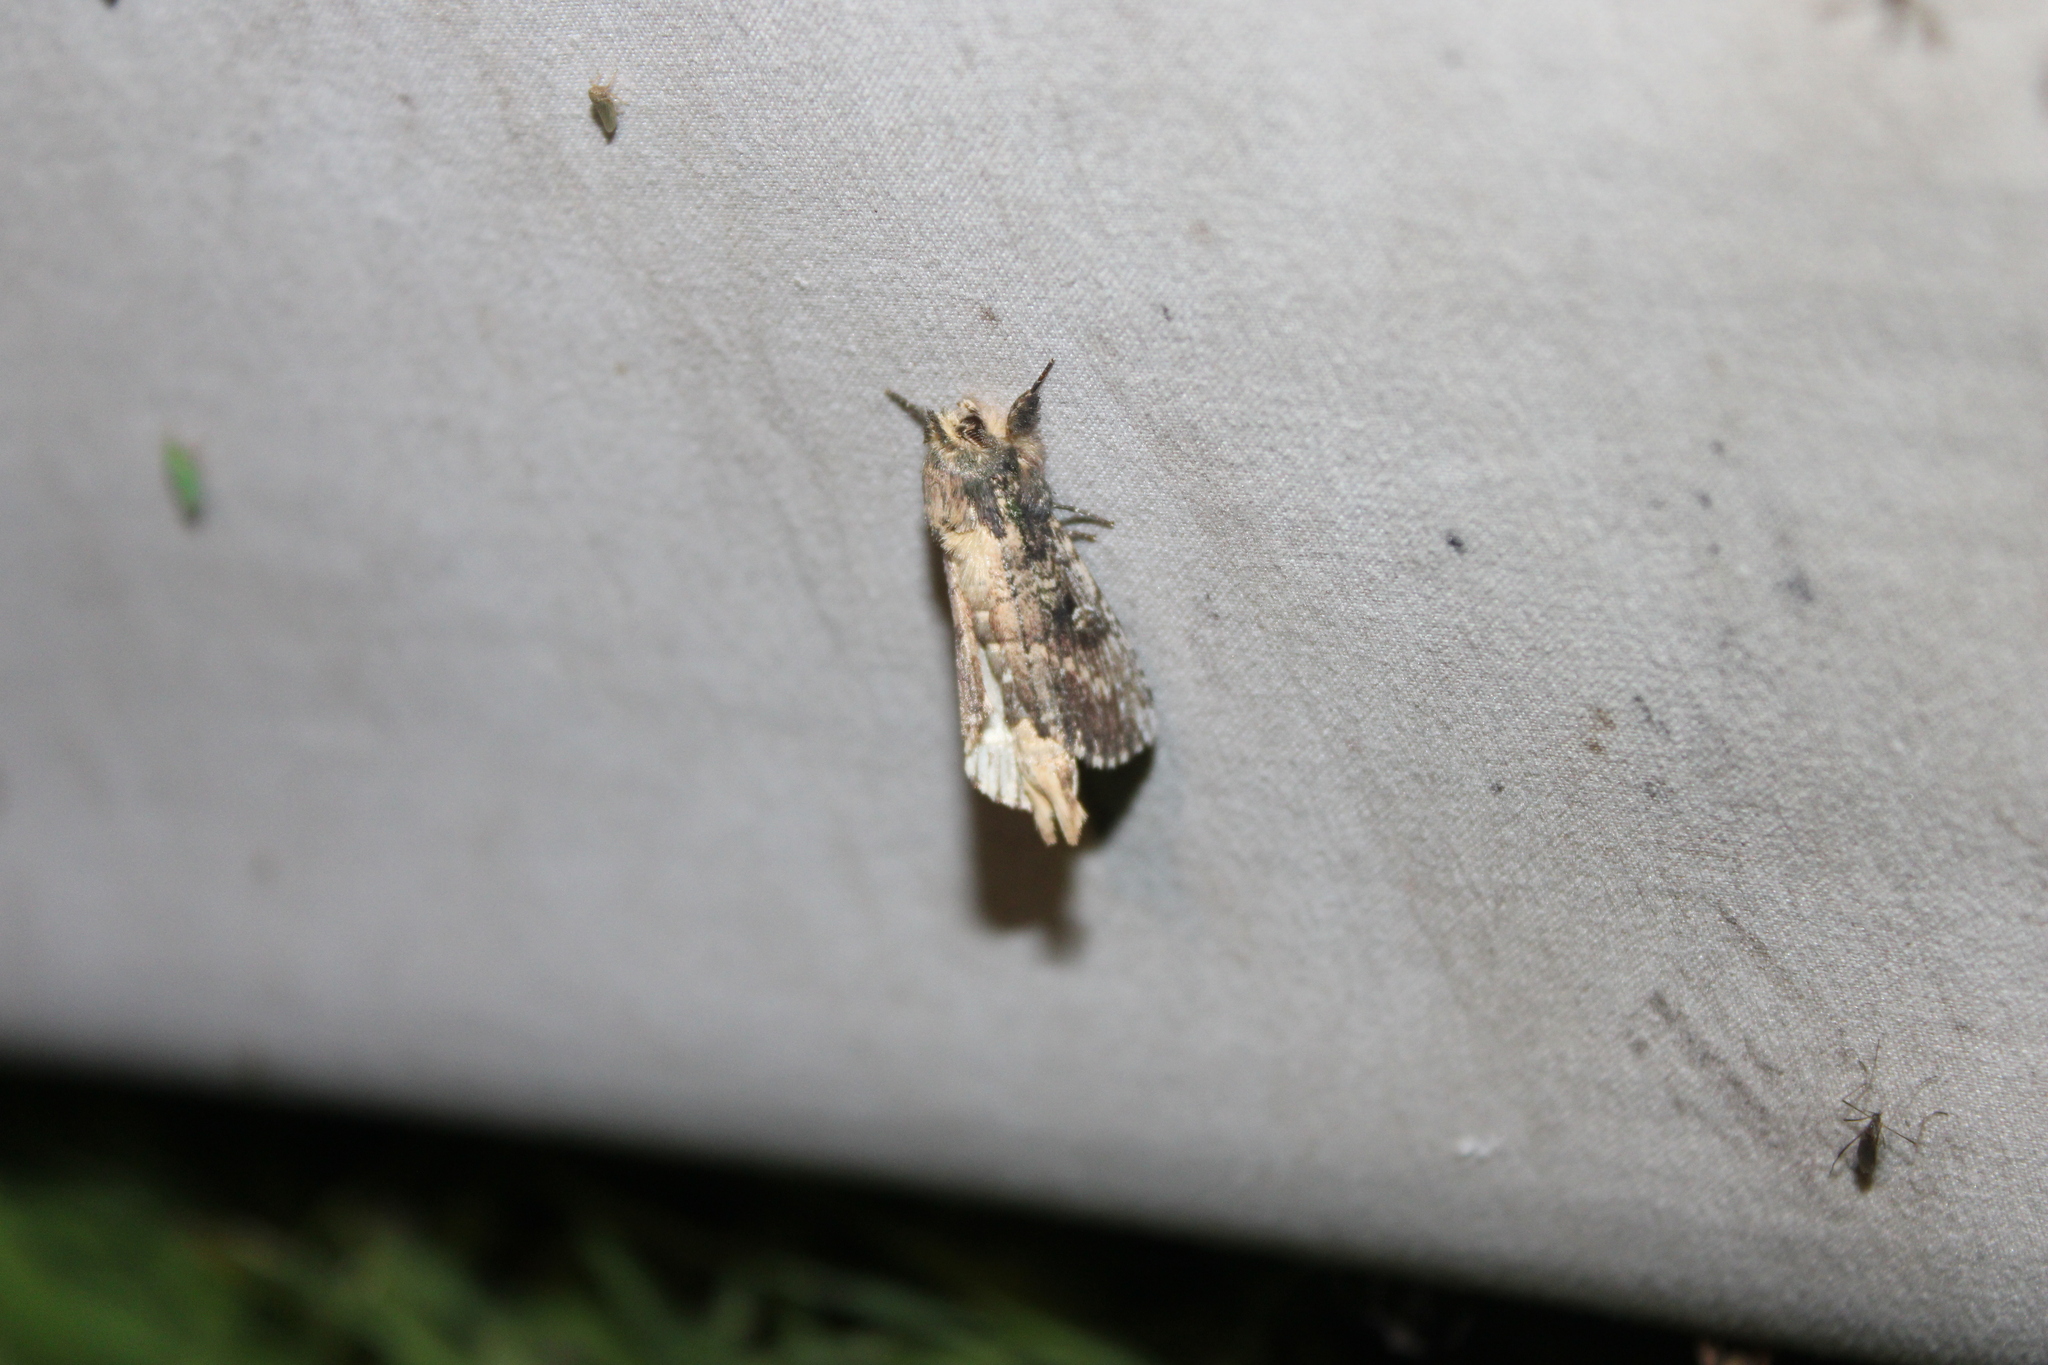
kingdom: Animalia
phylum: Arthropoda
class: Insecta
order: Lepidoptera
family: Notodontidae
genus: Schizura
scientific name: Schizura ipomaeae
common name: Morning-glory prominent
